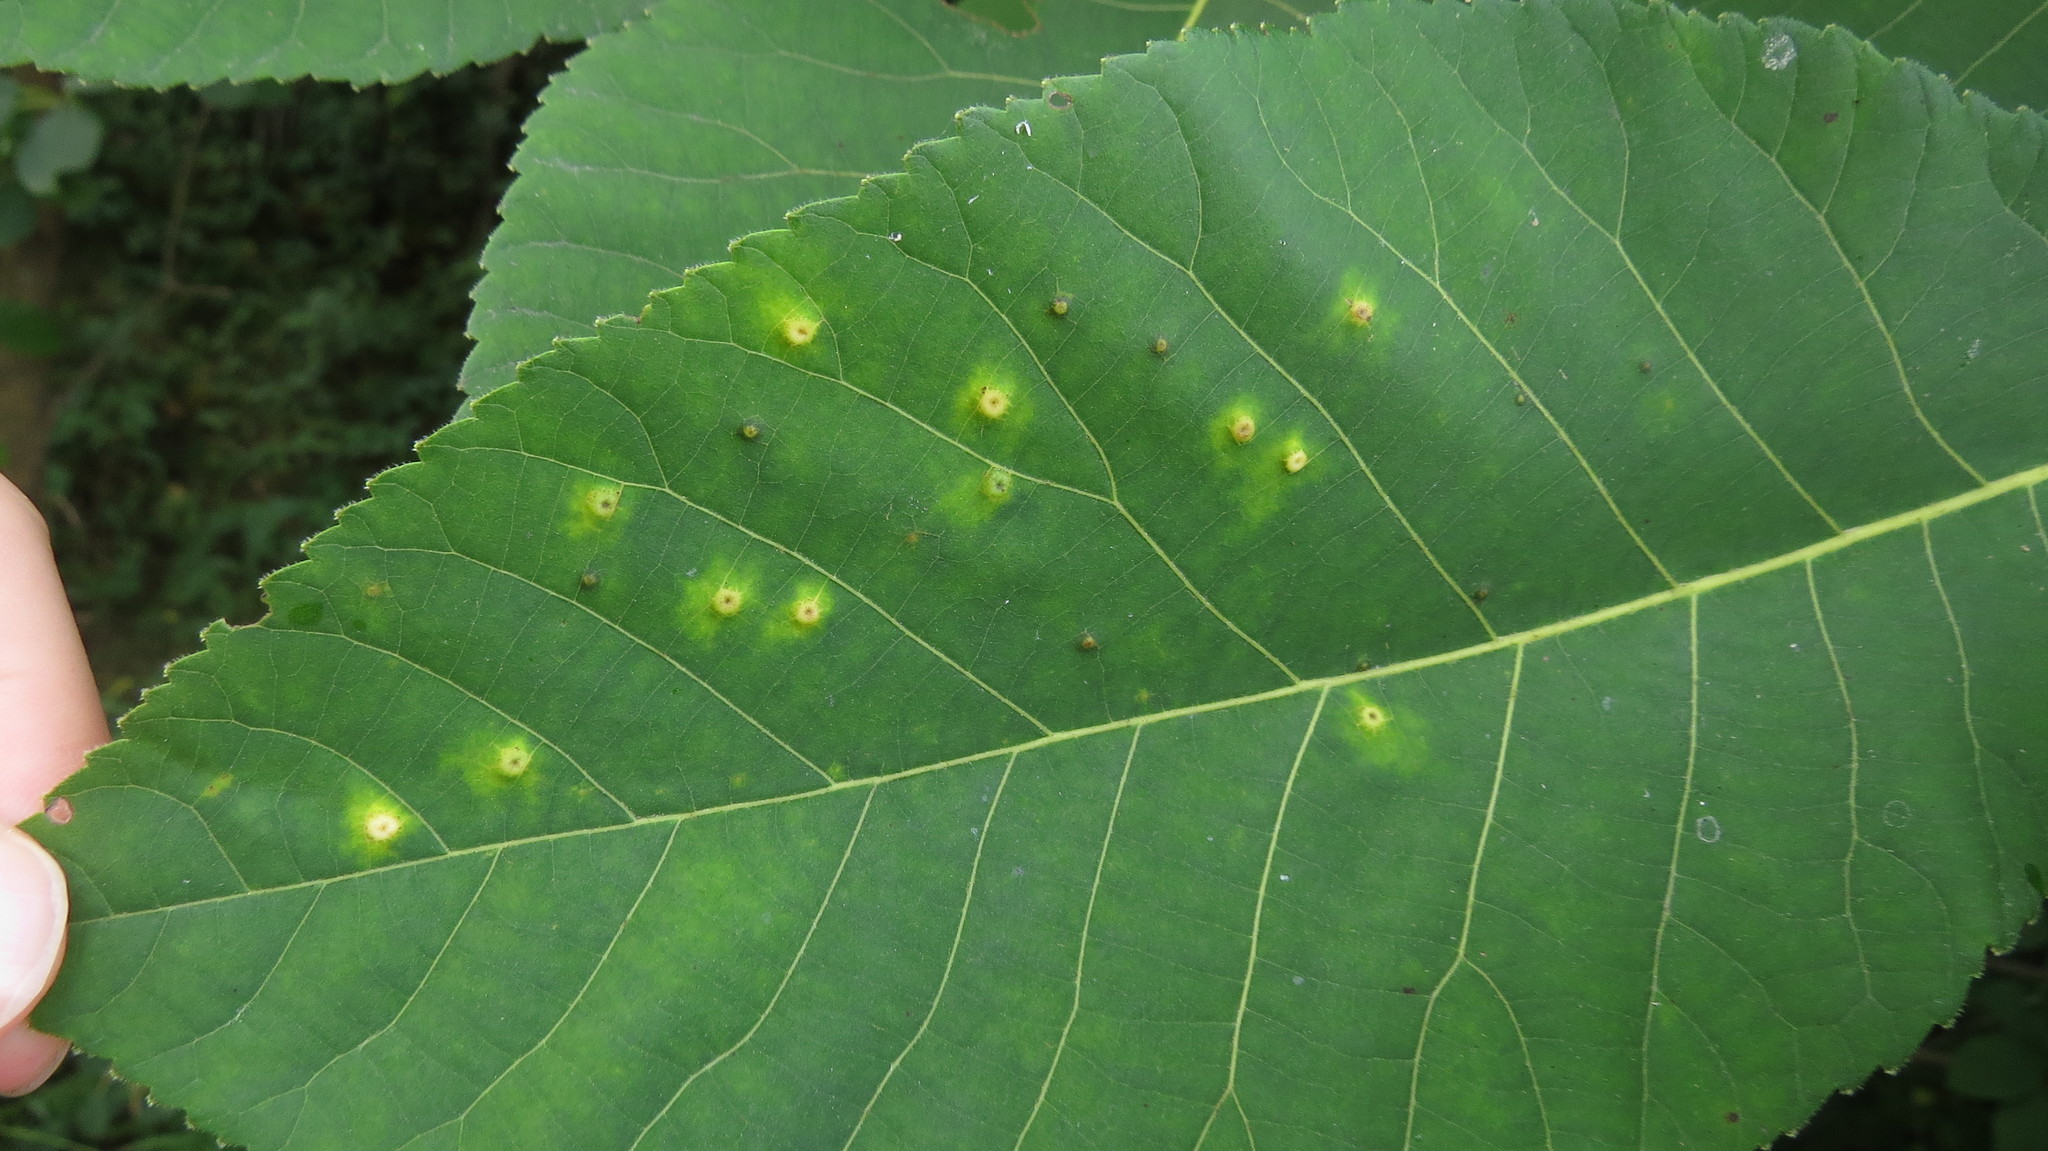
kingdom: Animalia
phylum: Arthropoda
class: Insecta
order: Diptera
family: Cecidomyiidae
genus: Caryomyia
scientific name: Caryomyia glauciglobus
